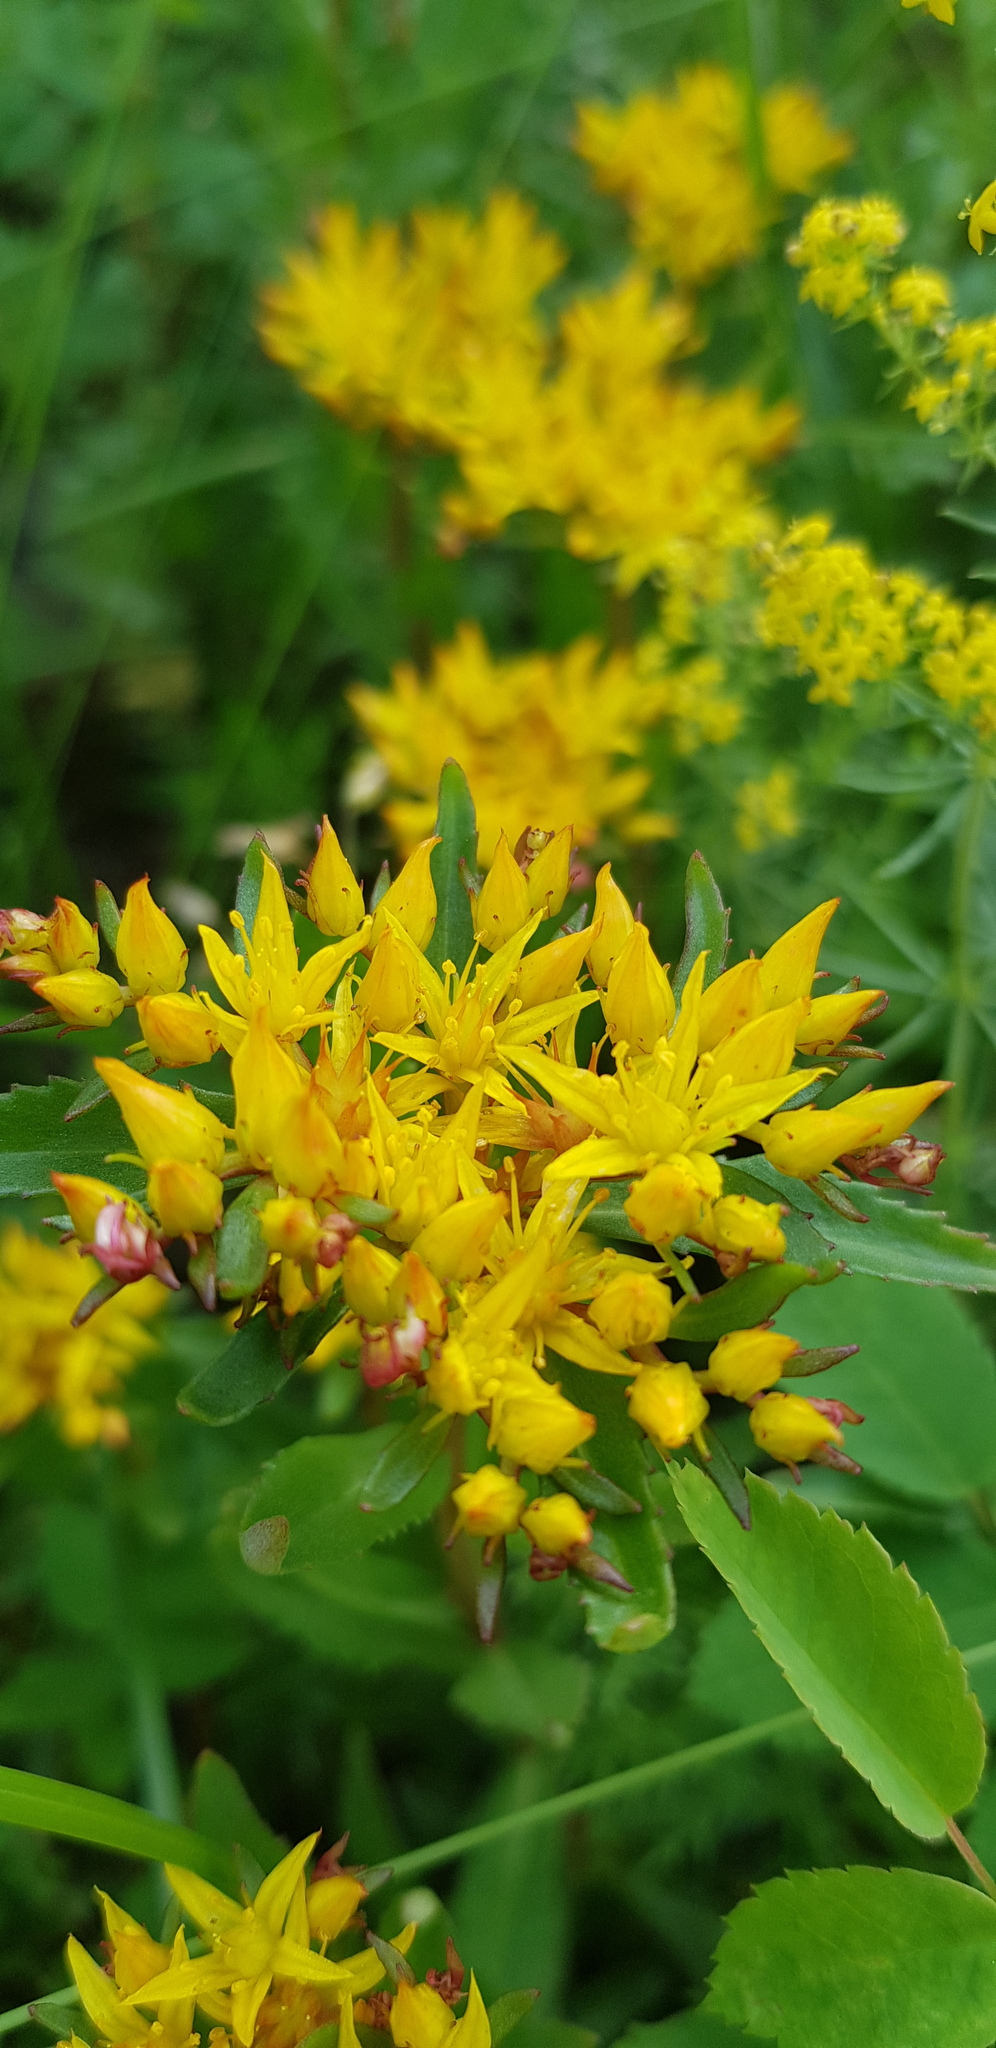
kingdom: Plantae
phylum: Tracheophyta
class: Magnoliopsida
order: Saxifragales
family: Crassulaceae
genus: Phedimus
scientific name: Phedimus aizoon
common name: Orpin aizoon
